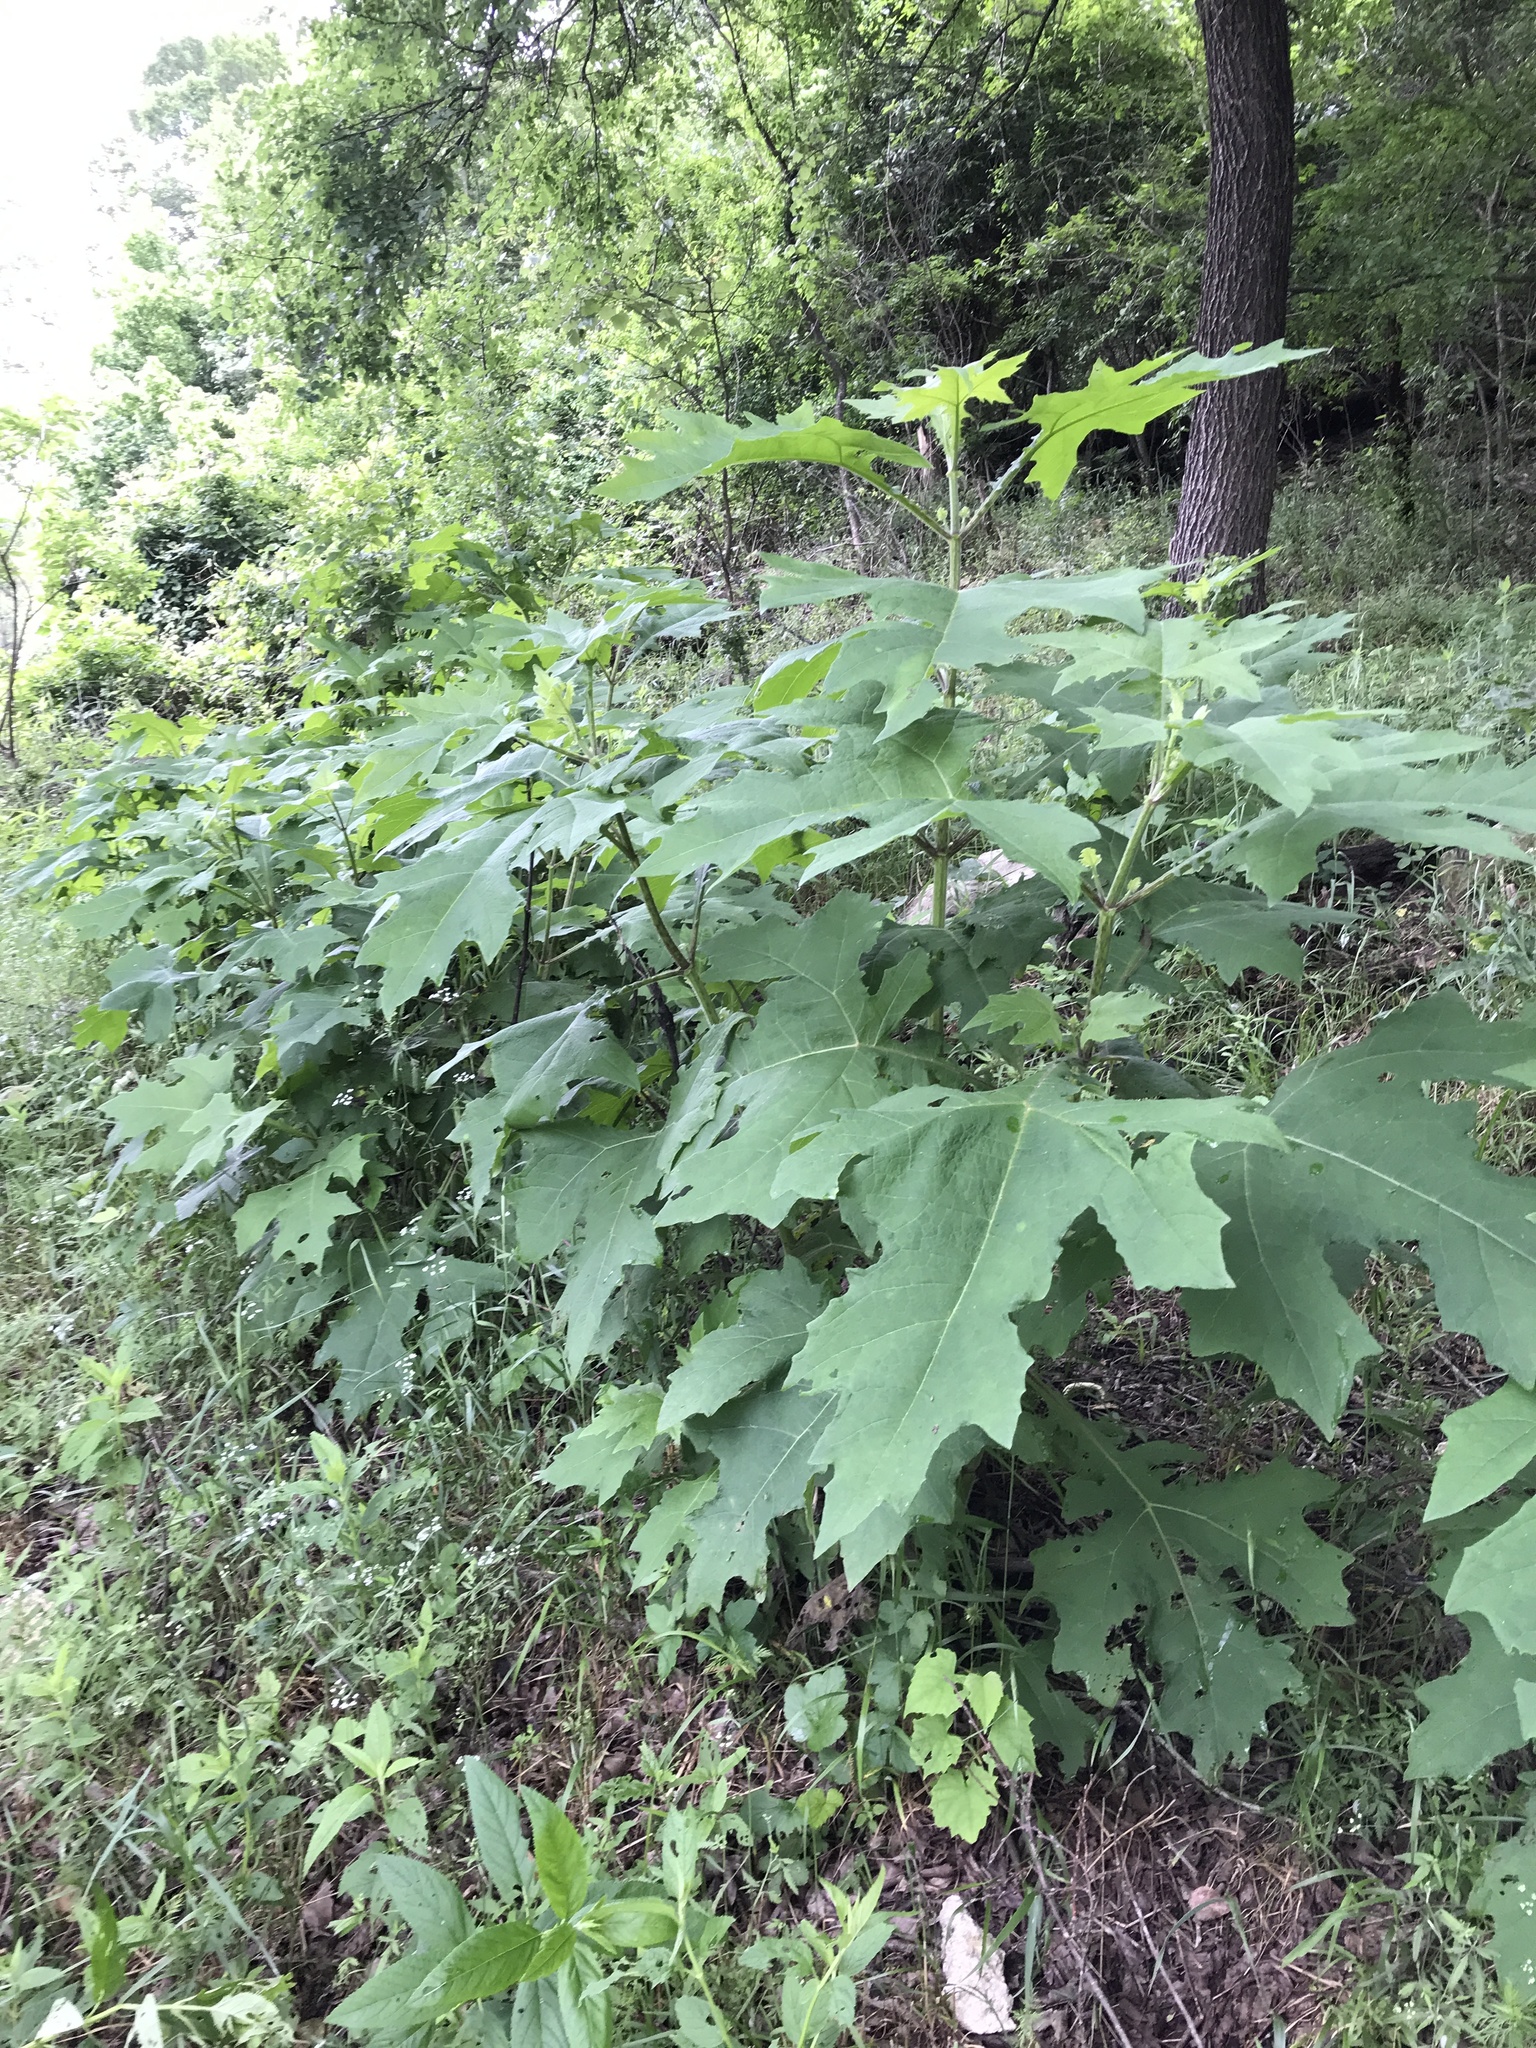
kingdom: Plantae
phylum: Tracheophyta
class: Magnoliopsida
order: Asterales
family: Asteraceae
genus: Smallanthus
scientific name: Smallanthus uvedalia
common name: Bear's-foot
